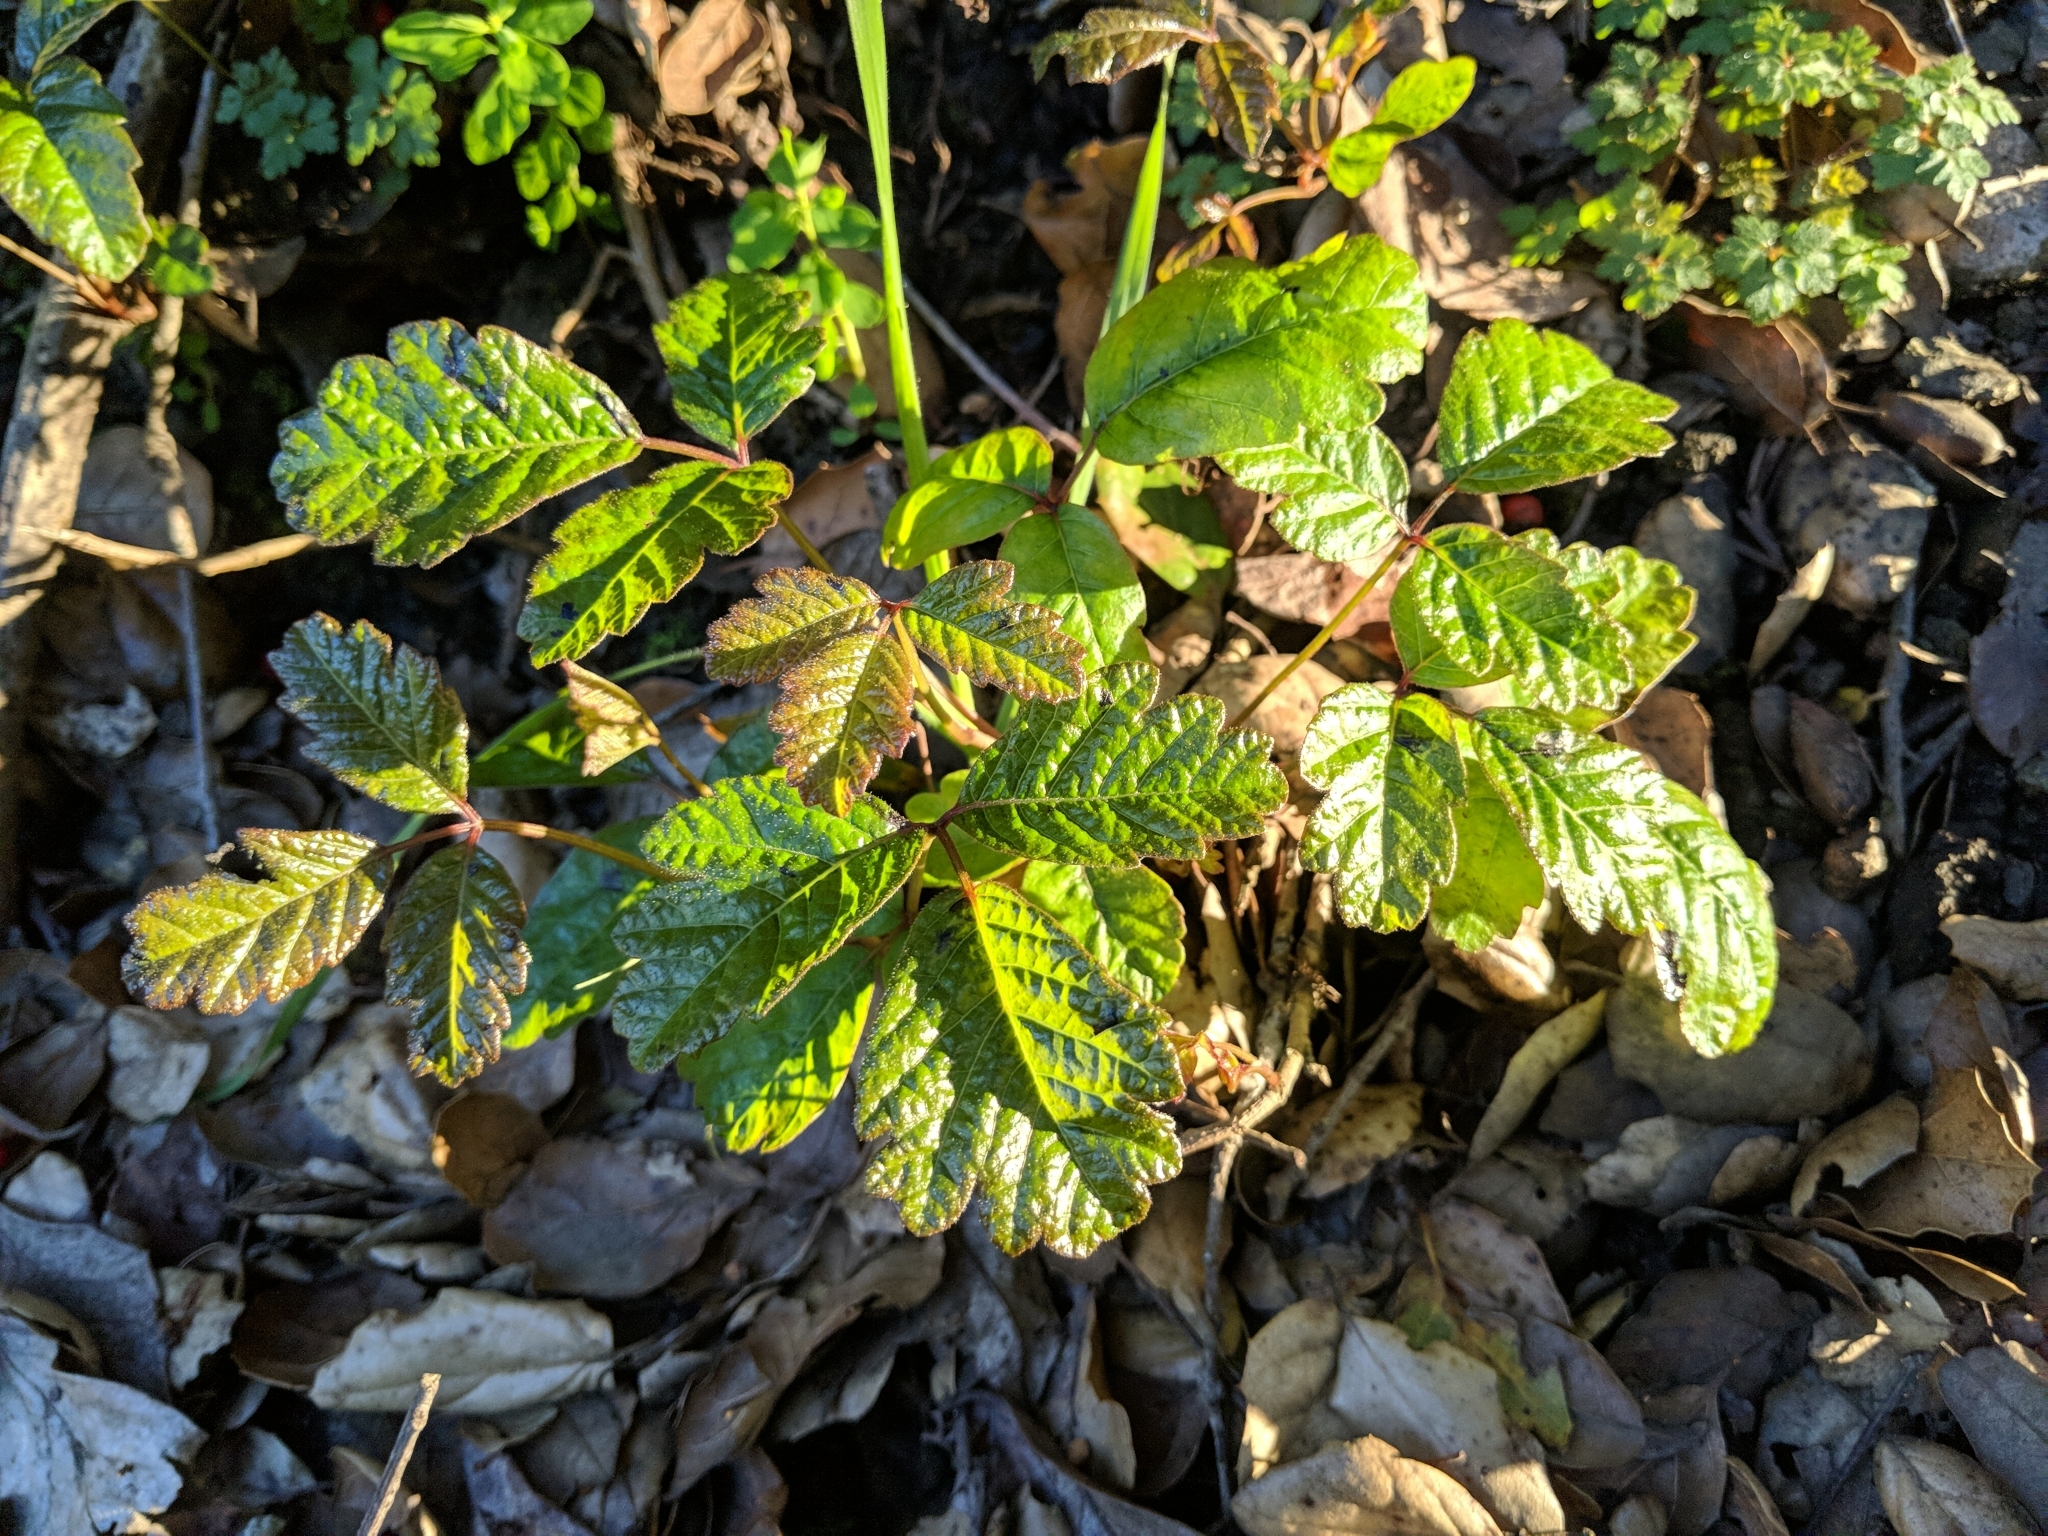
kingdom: Plantae
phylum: Tracheophyta
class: Magnoliopsida
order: Sapindales
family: Anacardiaceae
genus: Toxicodendron
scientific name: Toxicodendron diversilobum
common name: Pacific poison-oak
